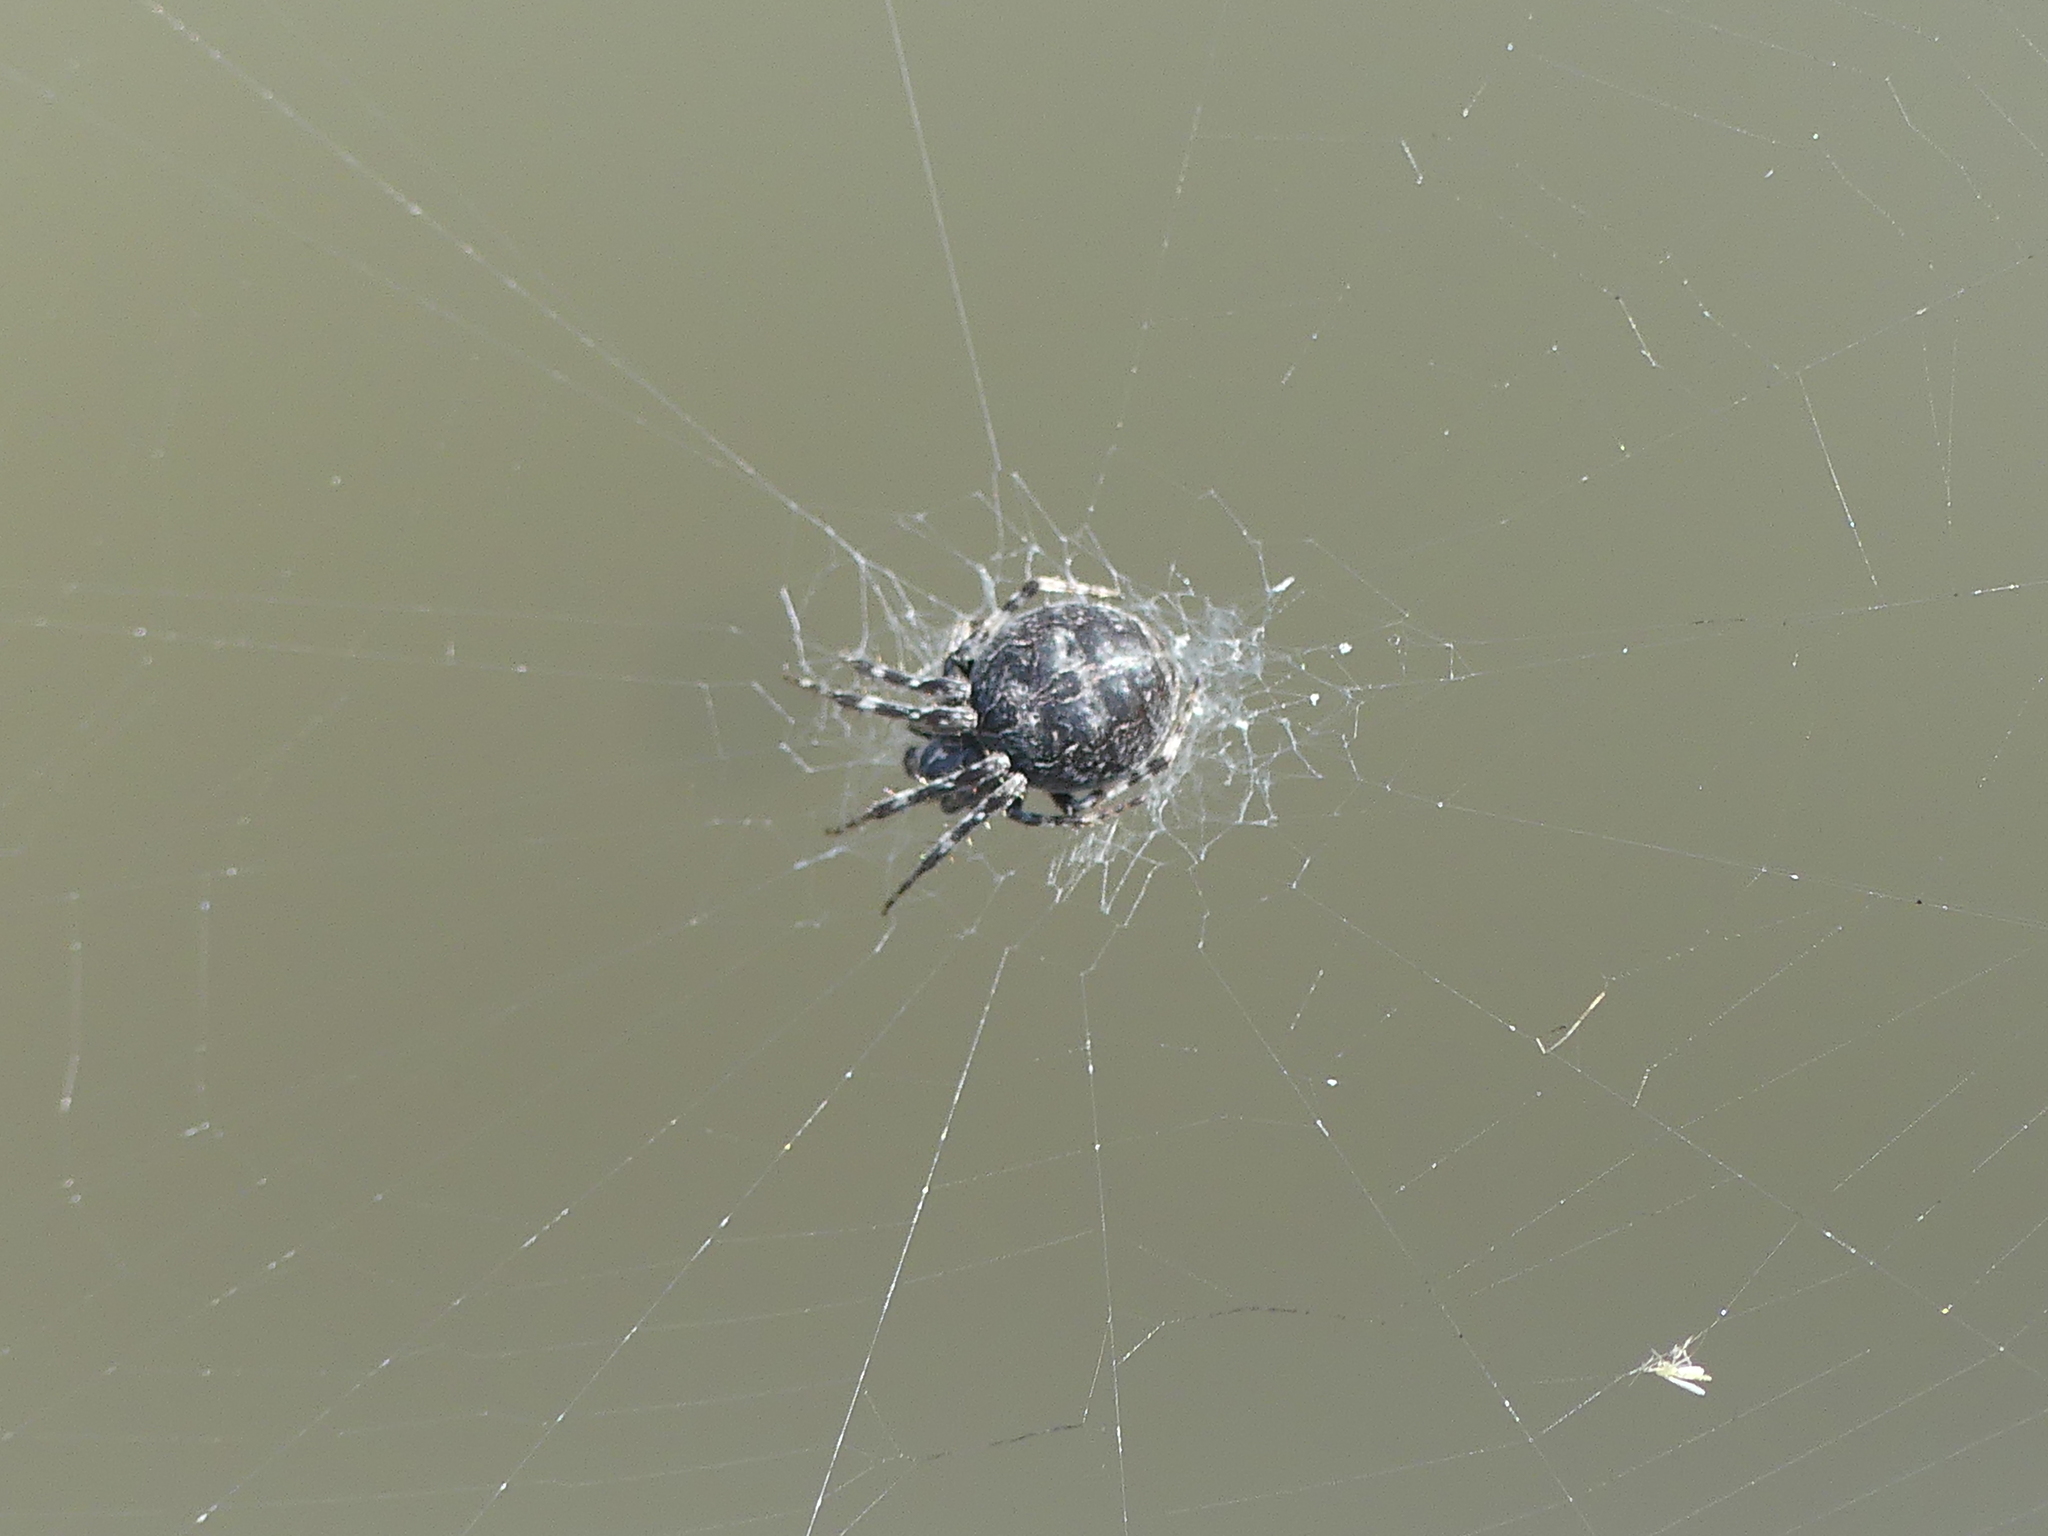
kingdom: Animalia
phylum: Arthropoda
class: Arachnida
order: Araneae
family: Araneidae
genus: Larinioides
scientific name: Larinioides sclopetarius
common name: Bridge orbweaver
